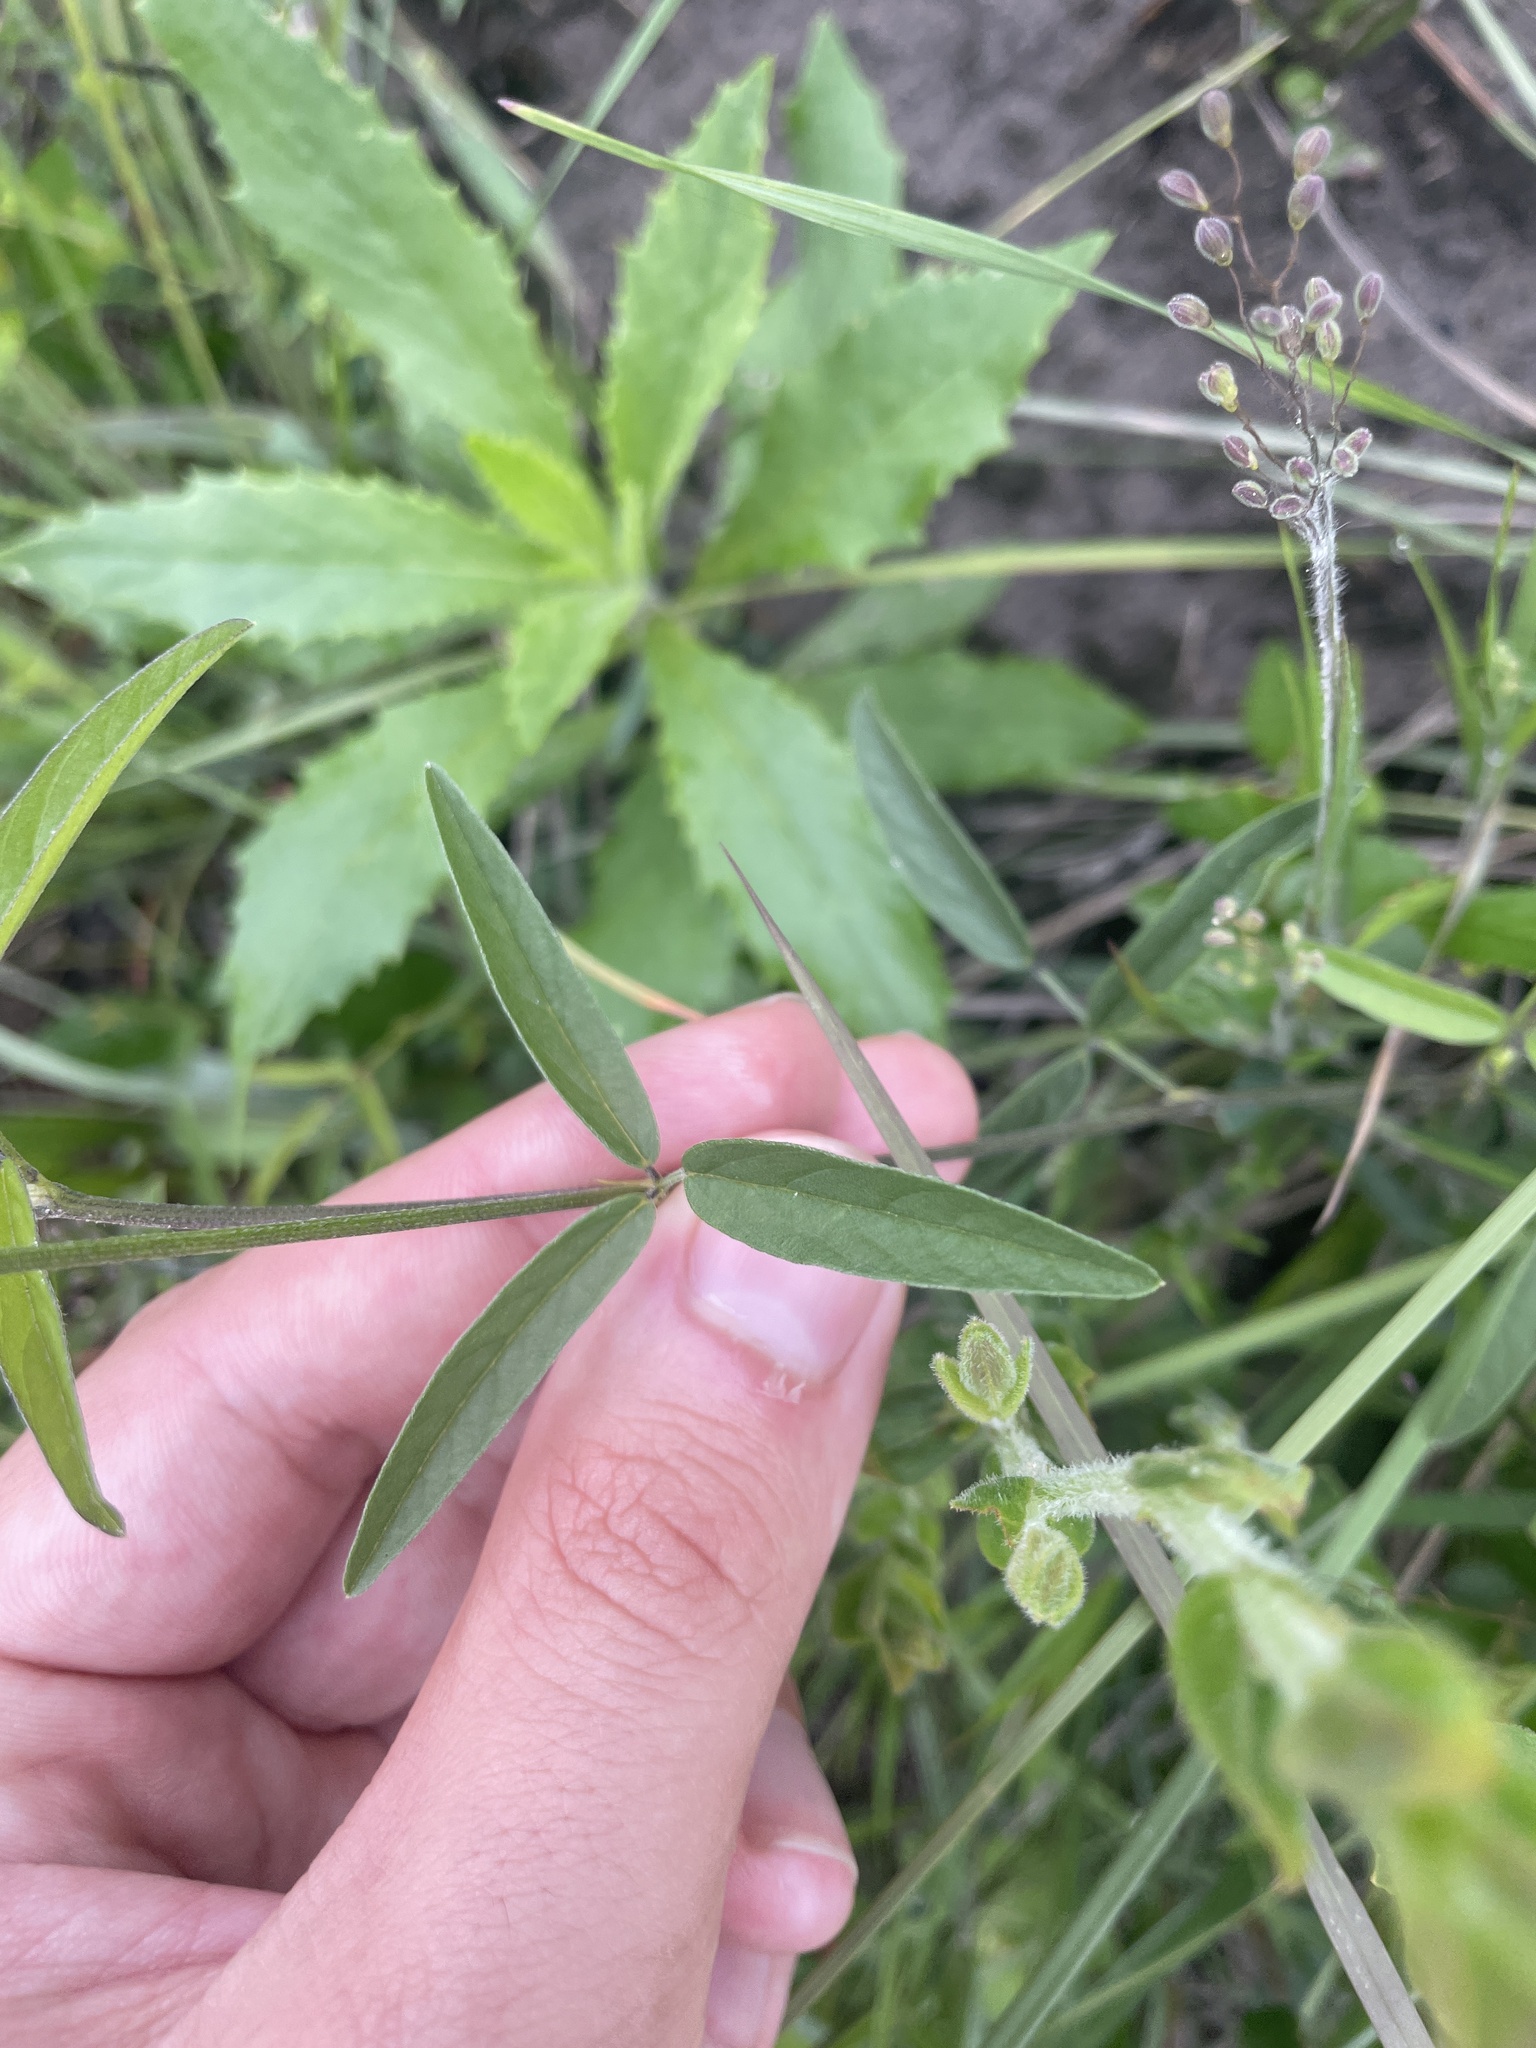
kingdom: Plantae
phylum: Tracheophyta
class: Magnoliopsida
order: Fabales
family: Fabaceae
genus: Orbexilum
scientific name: Orbexilum psoralioides
